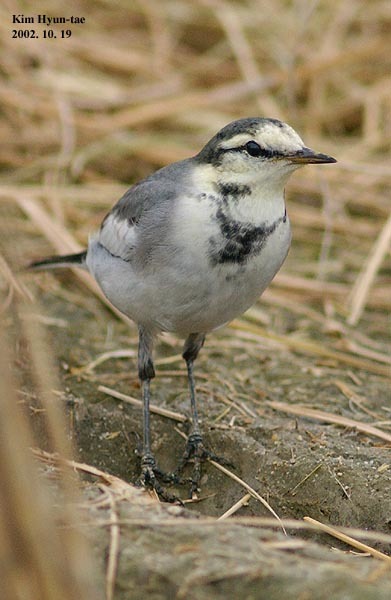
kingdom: Animalia
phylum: Chordata
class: Aves
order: Passeriformes
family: Motacillidae
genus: Motacilla
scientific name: Motacilla alba
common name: White wagtail
